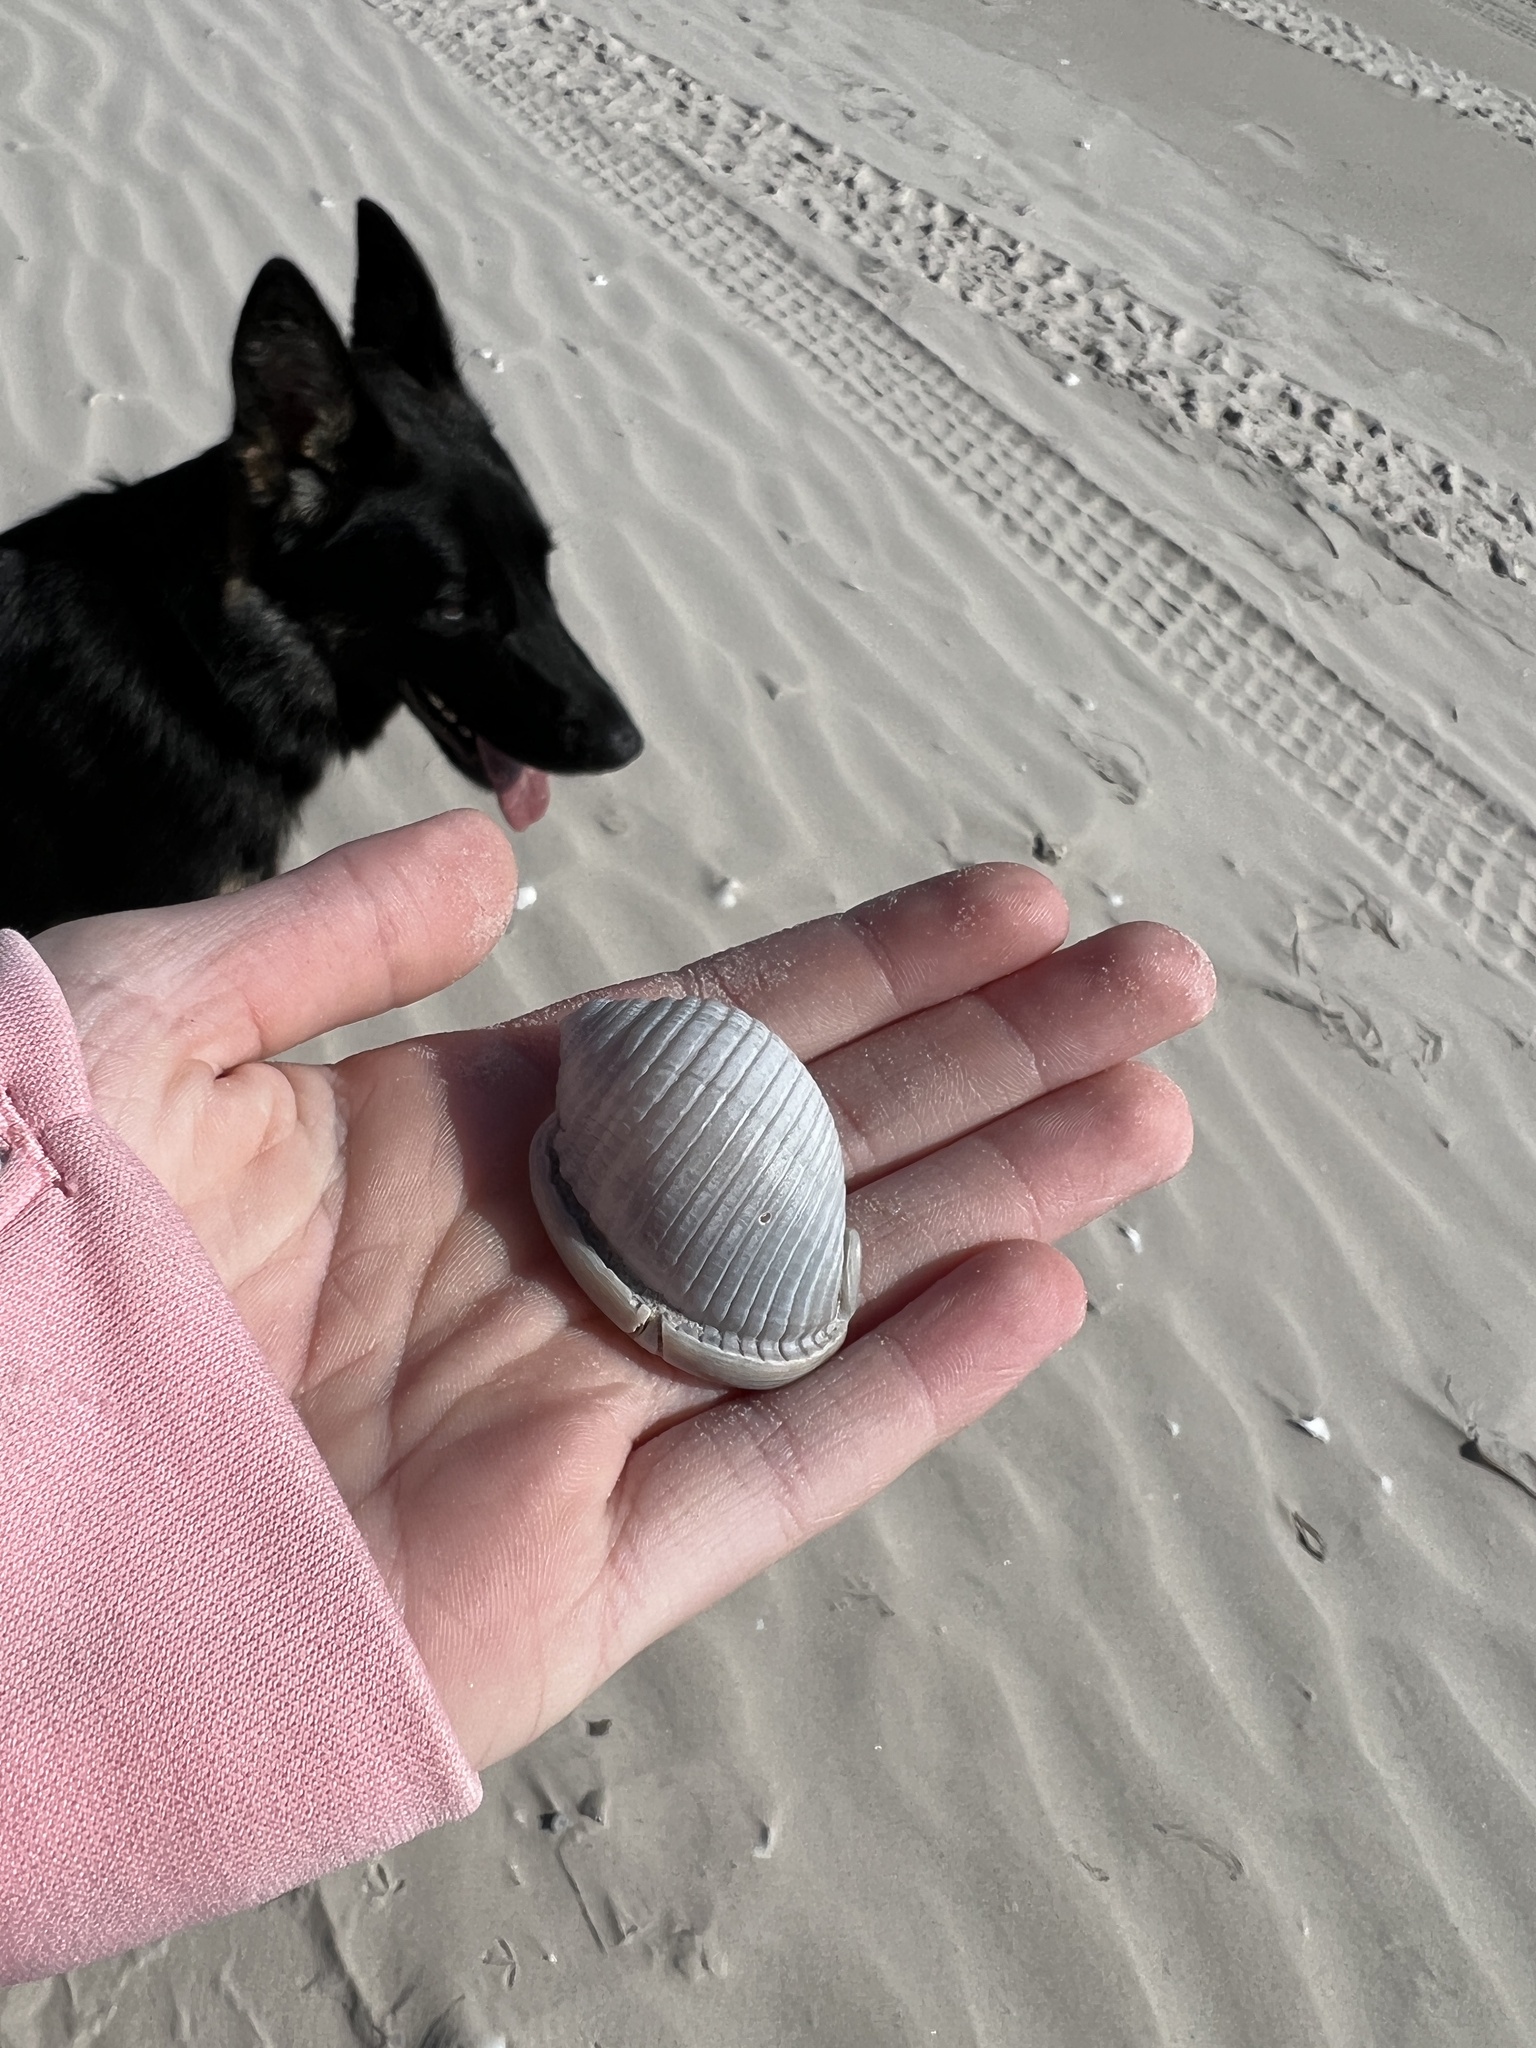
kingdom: Animalia
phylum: Mollusca
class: Gastropoda
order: Littorinimorpha
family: Cassidae
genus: Semicassis
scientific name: Semicassis granulata
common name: Scotch bonnet
